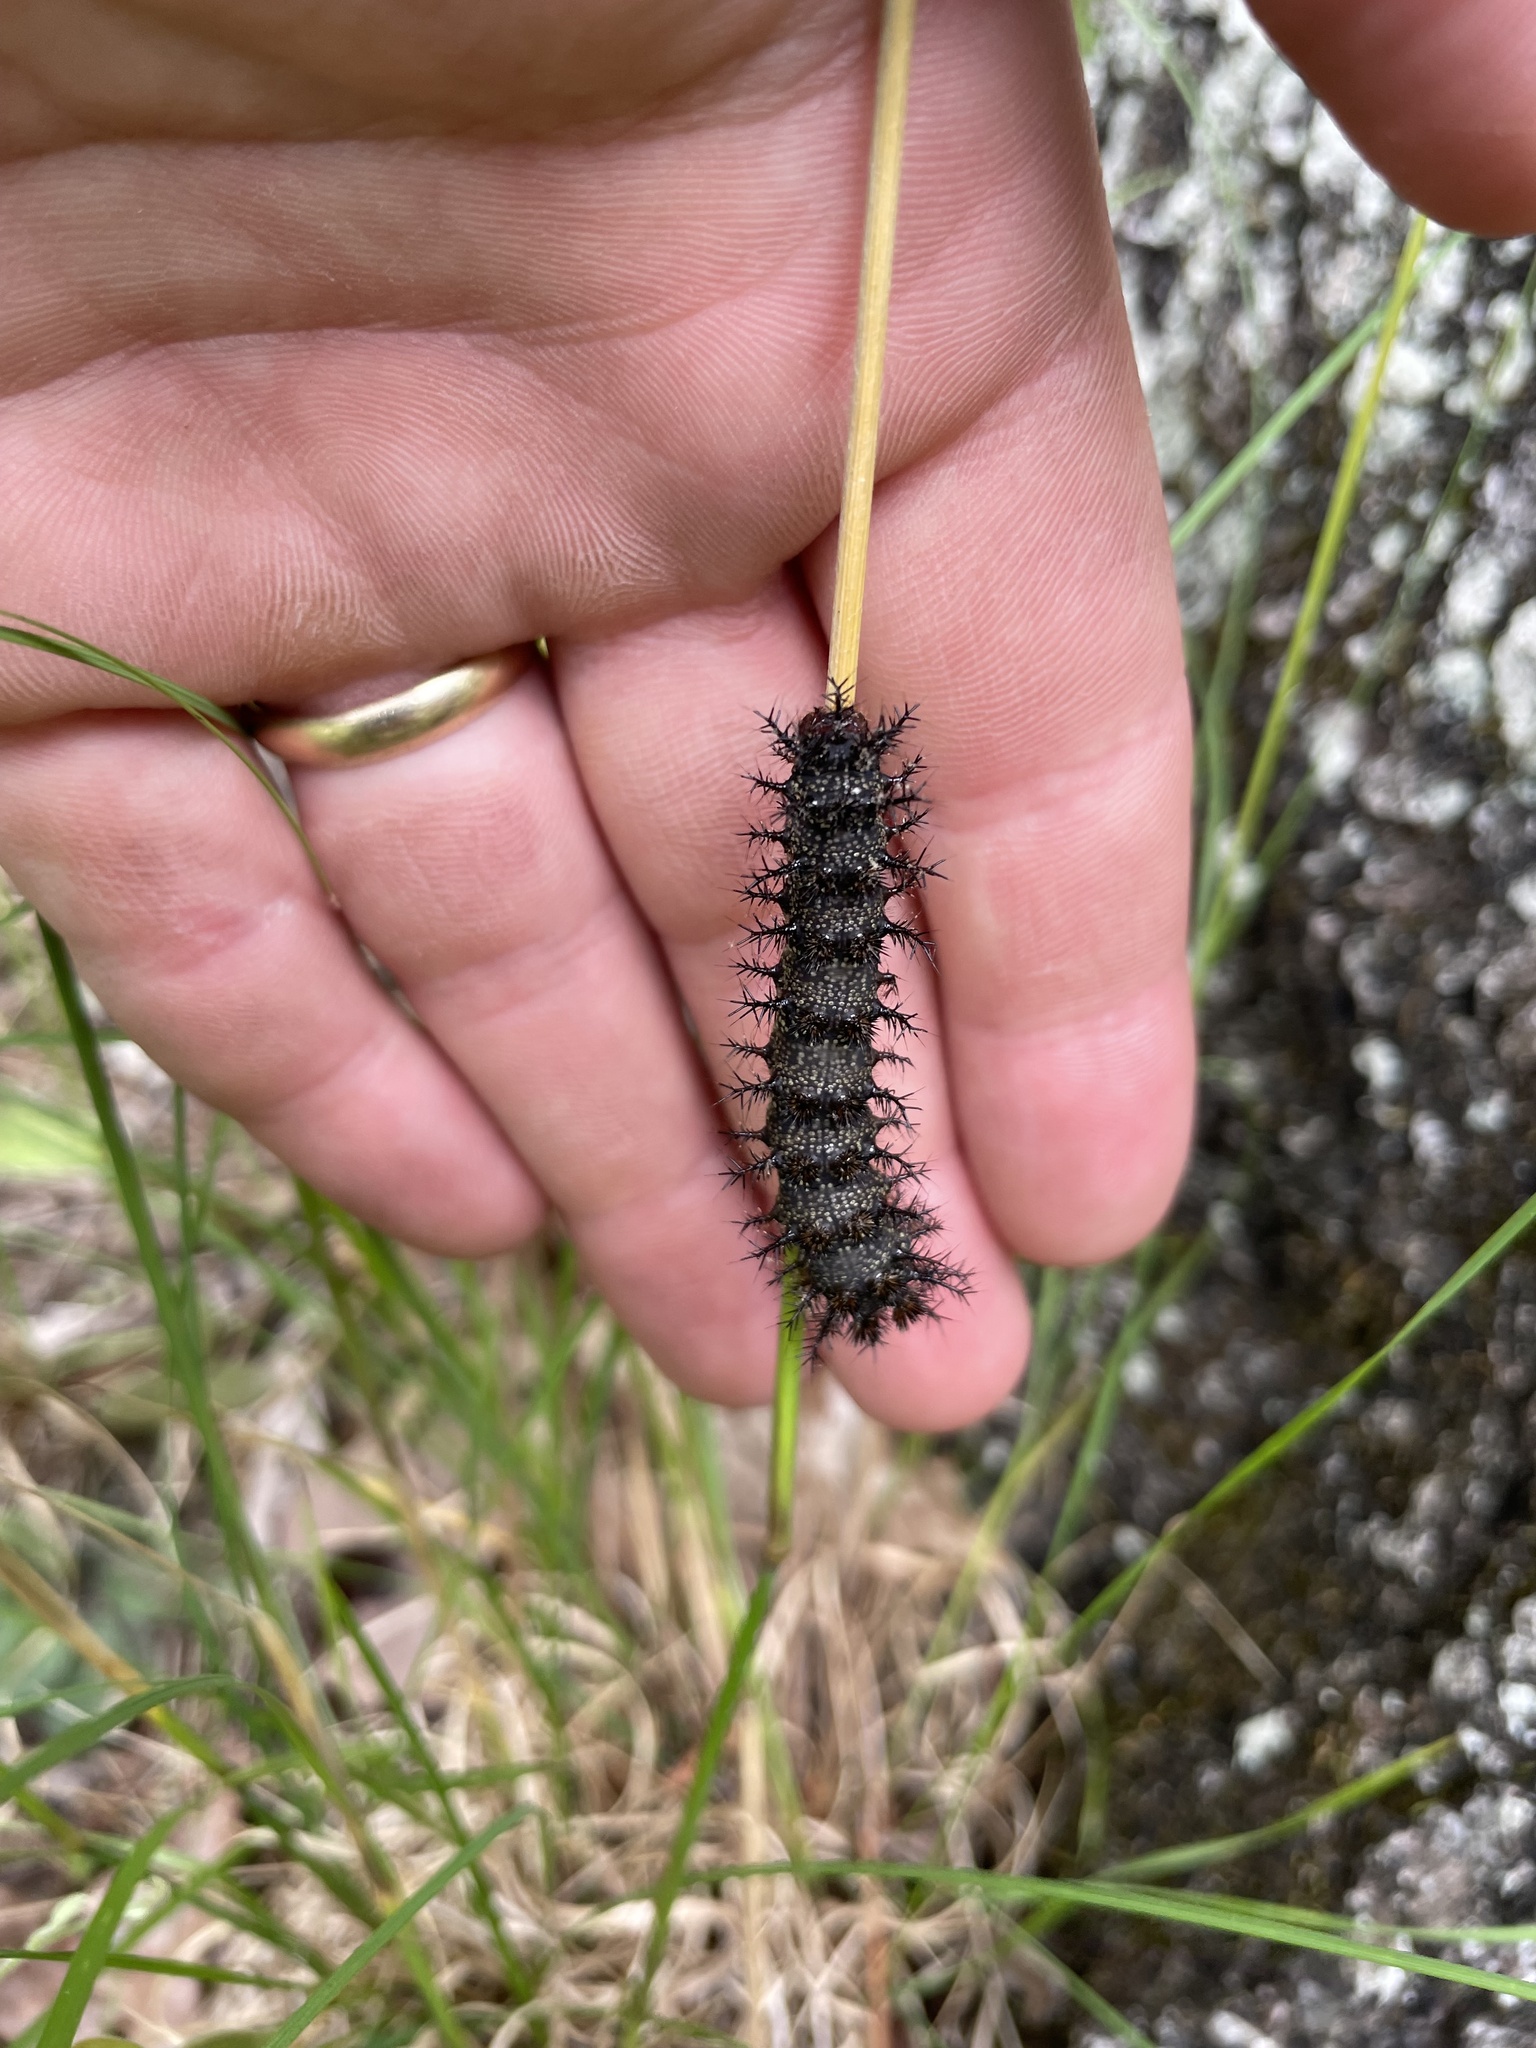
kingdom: Animalia
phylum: Arthropoda
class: Insecta
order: Lepidoptera
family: Saturniidae
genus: Hemileuca
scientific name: Hemileuca maia
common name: Eastern buckmoth
